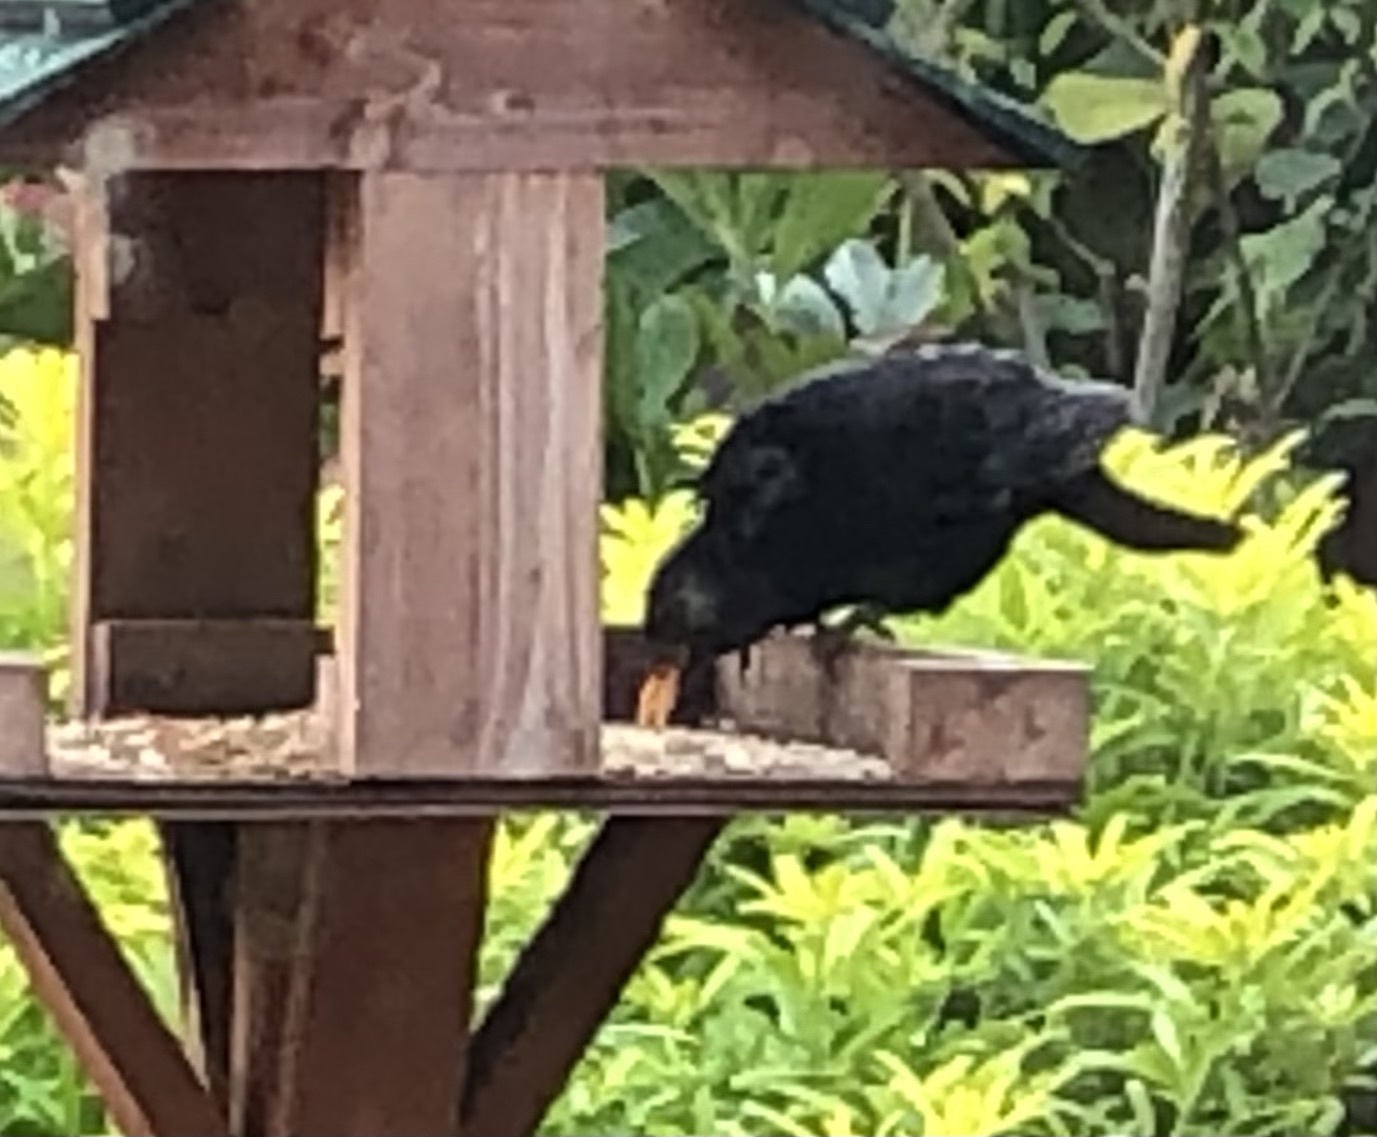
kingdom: Animalia
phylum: Chordata
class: Aves
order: Passeriformes
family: Turdidae
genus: Turdus
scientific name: Turdus merula
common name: Common blackbird
